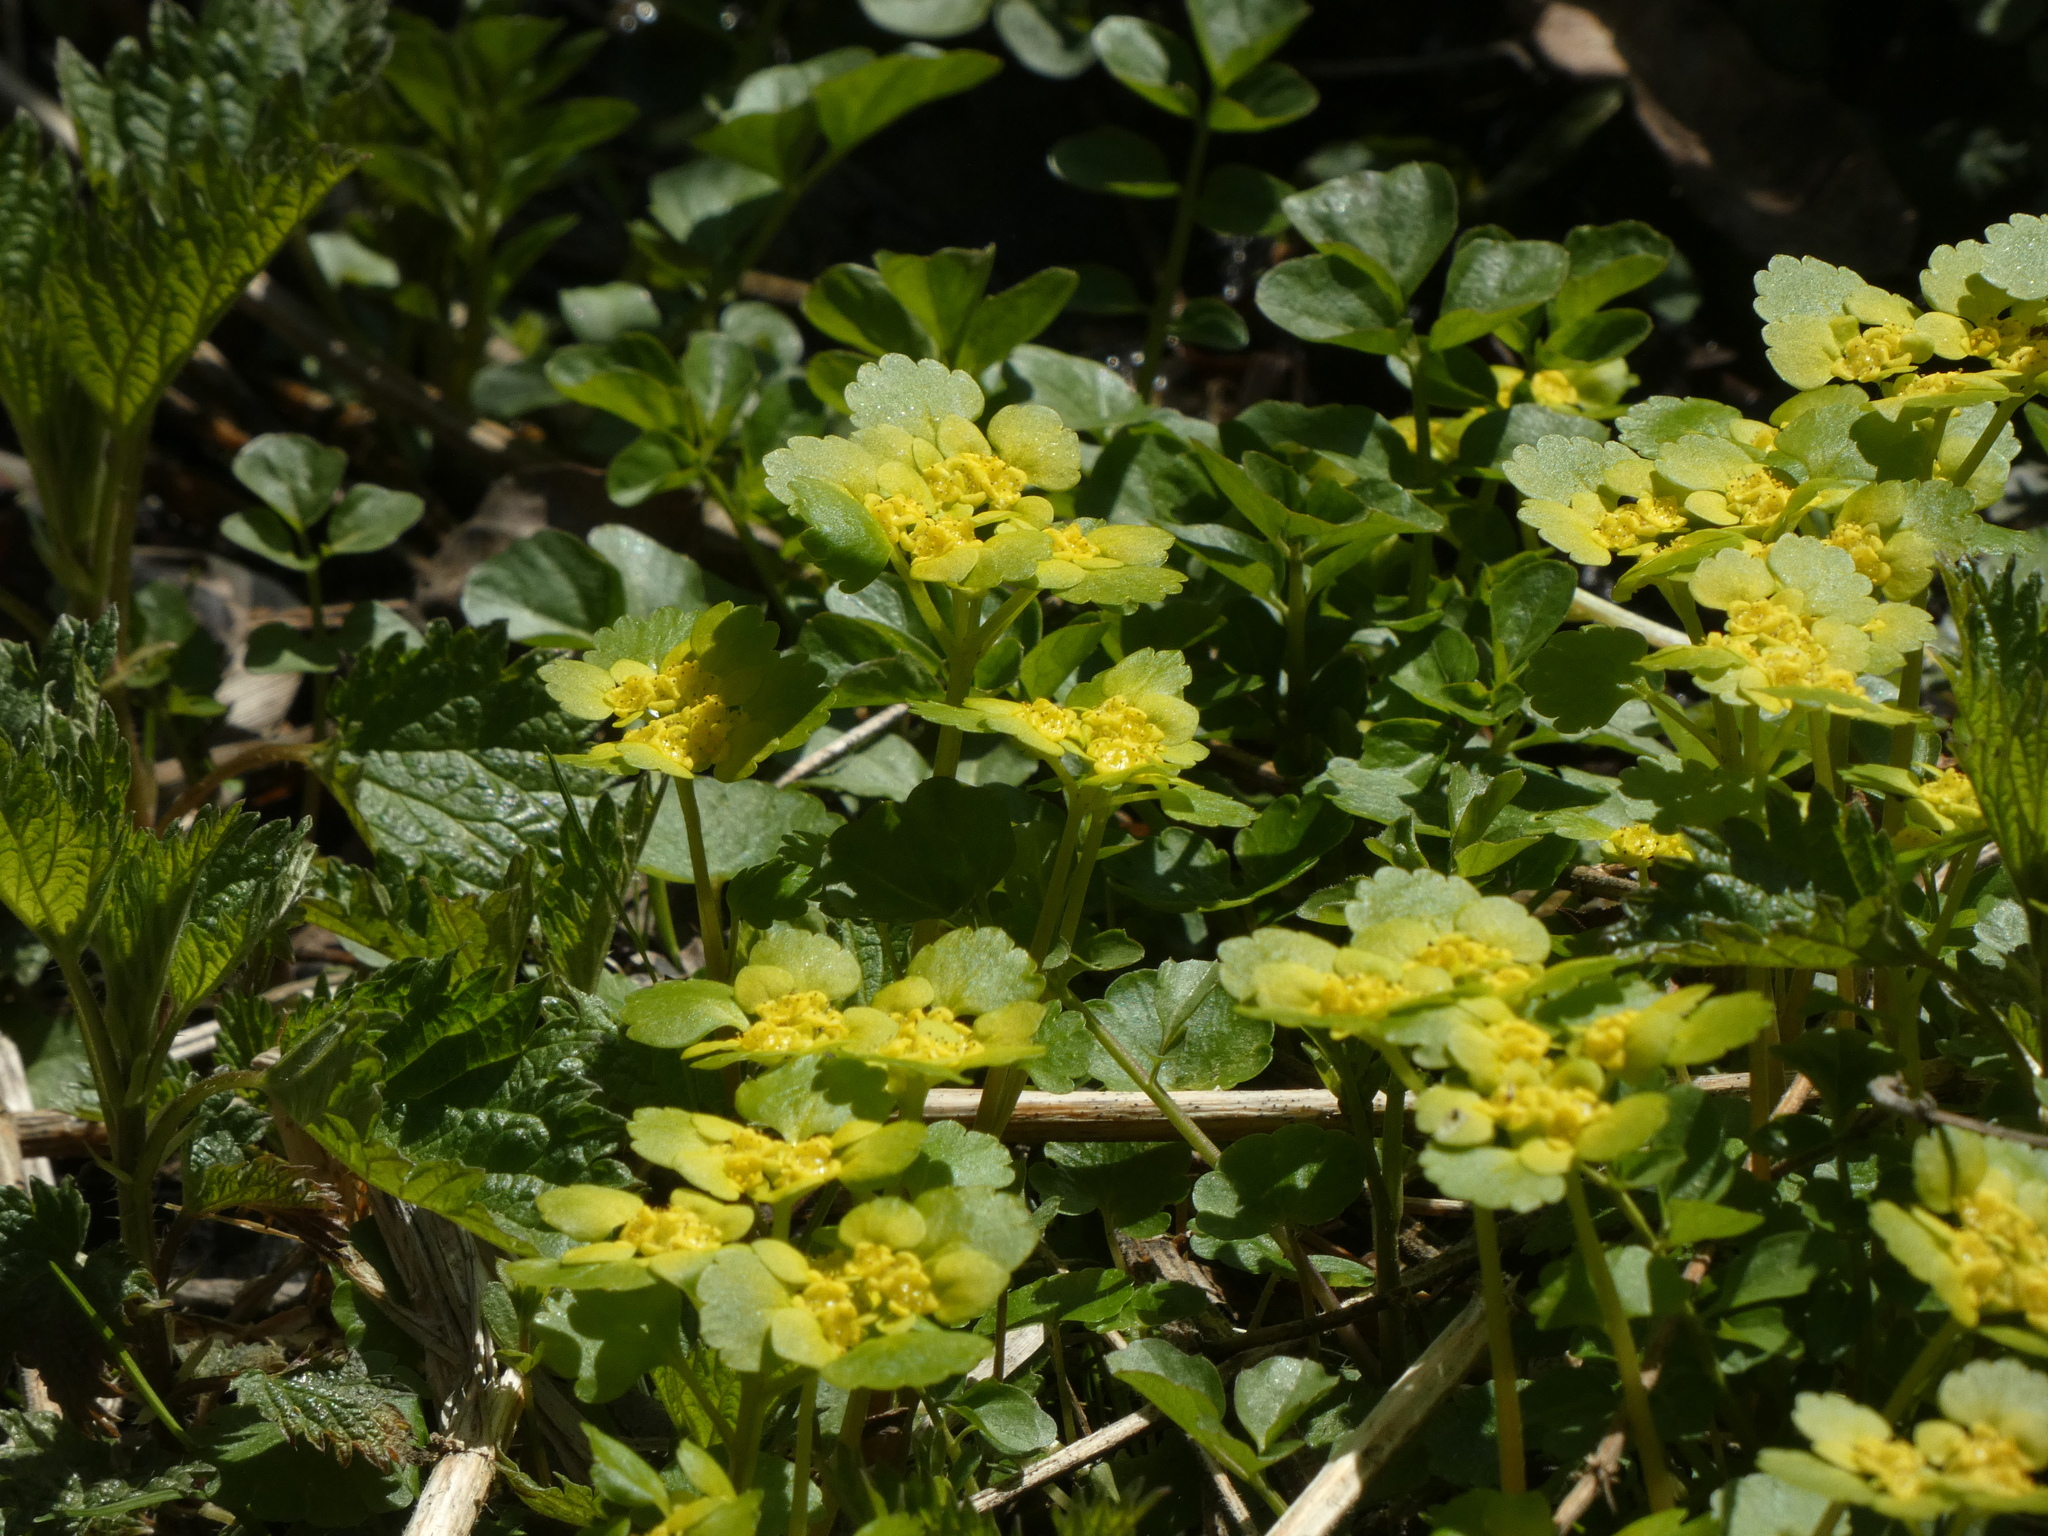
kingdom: Plantae
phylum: Tracheophyta
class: Magnoliopsida
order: Saxifragales
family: Saxifragaceae
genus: Chrysosplenium
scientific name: Chrysosplenium alternifolium
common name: Alternate-leaved golden-saxifrage
